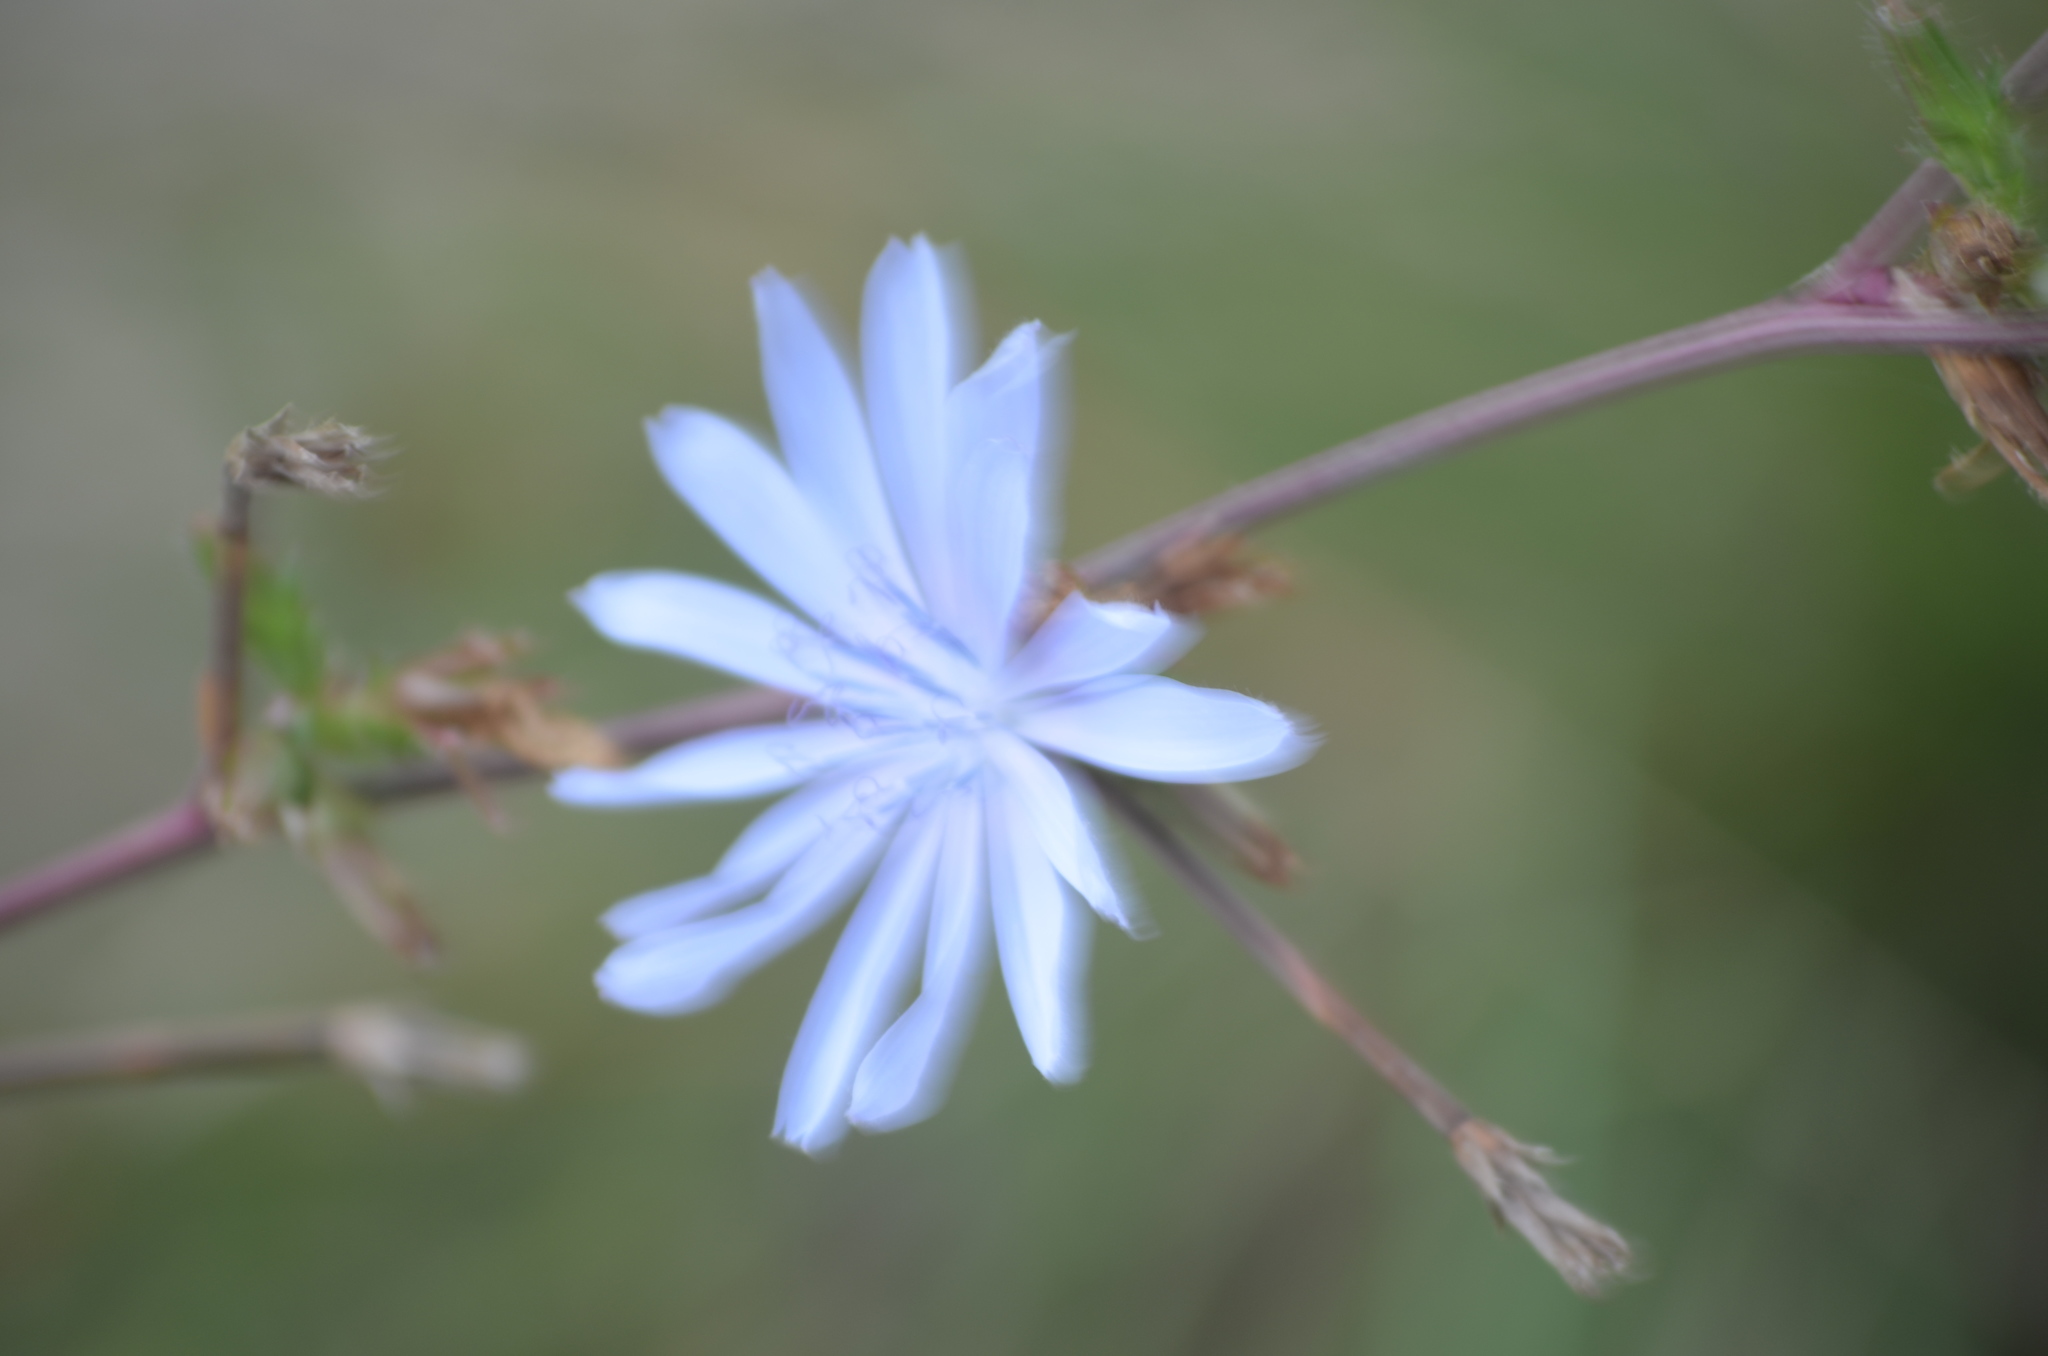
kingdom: Plantae
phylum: Tracheophyta
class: Magnoliopsida
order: Asterales
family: Asteraceae
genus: Cichorium
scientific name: Cichorium intybus
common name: Chicory
